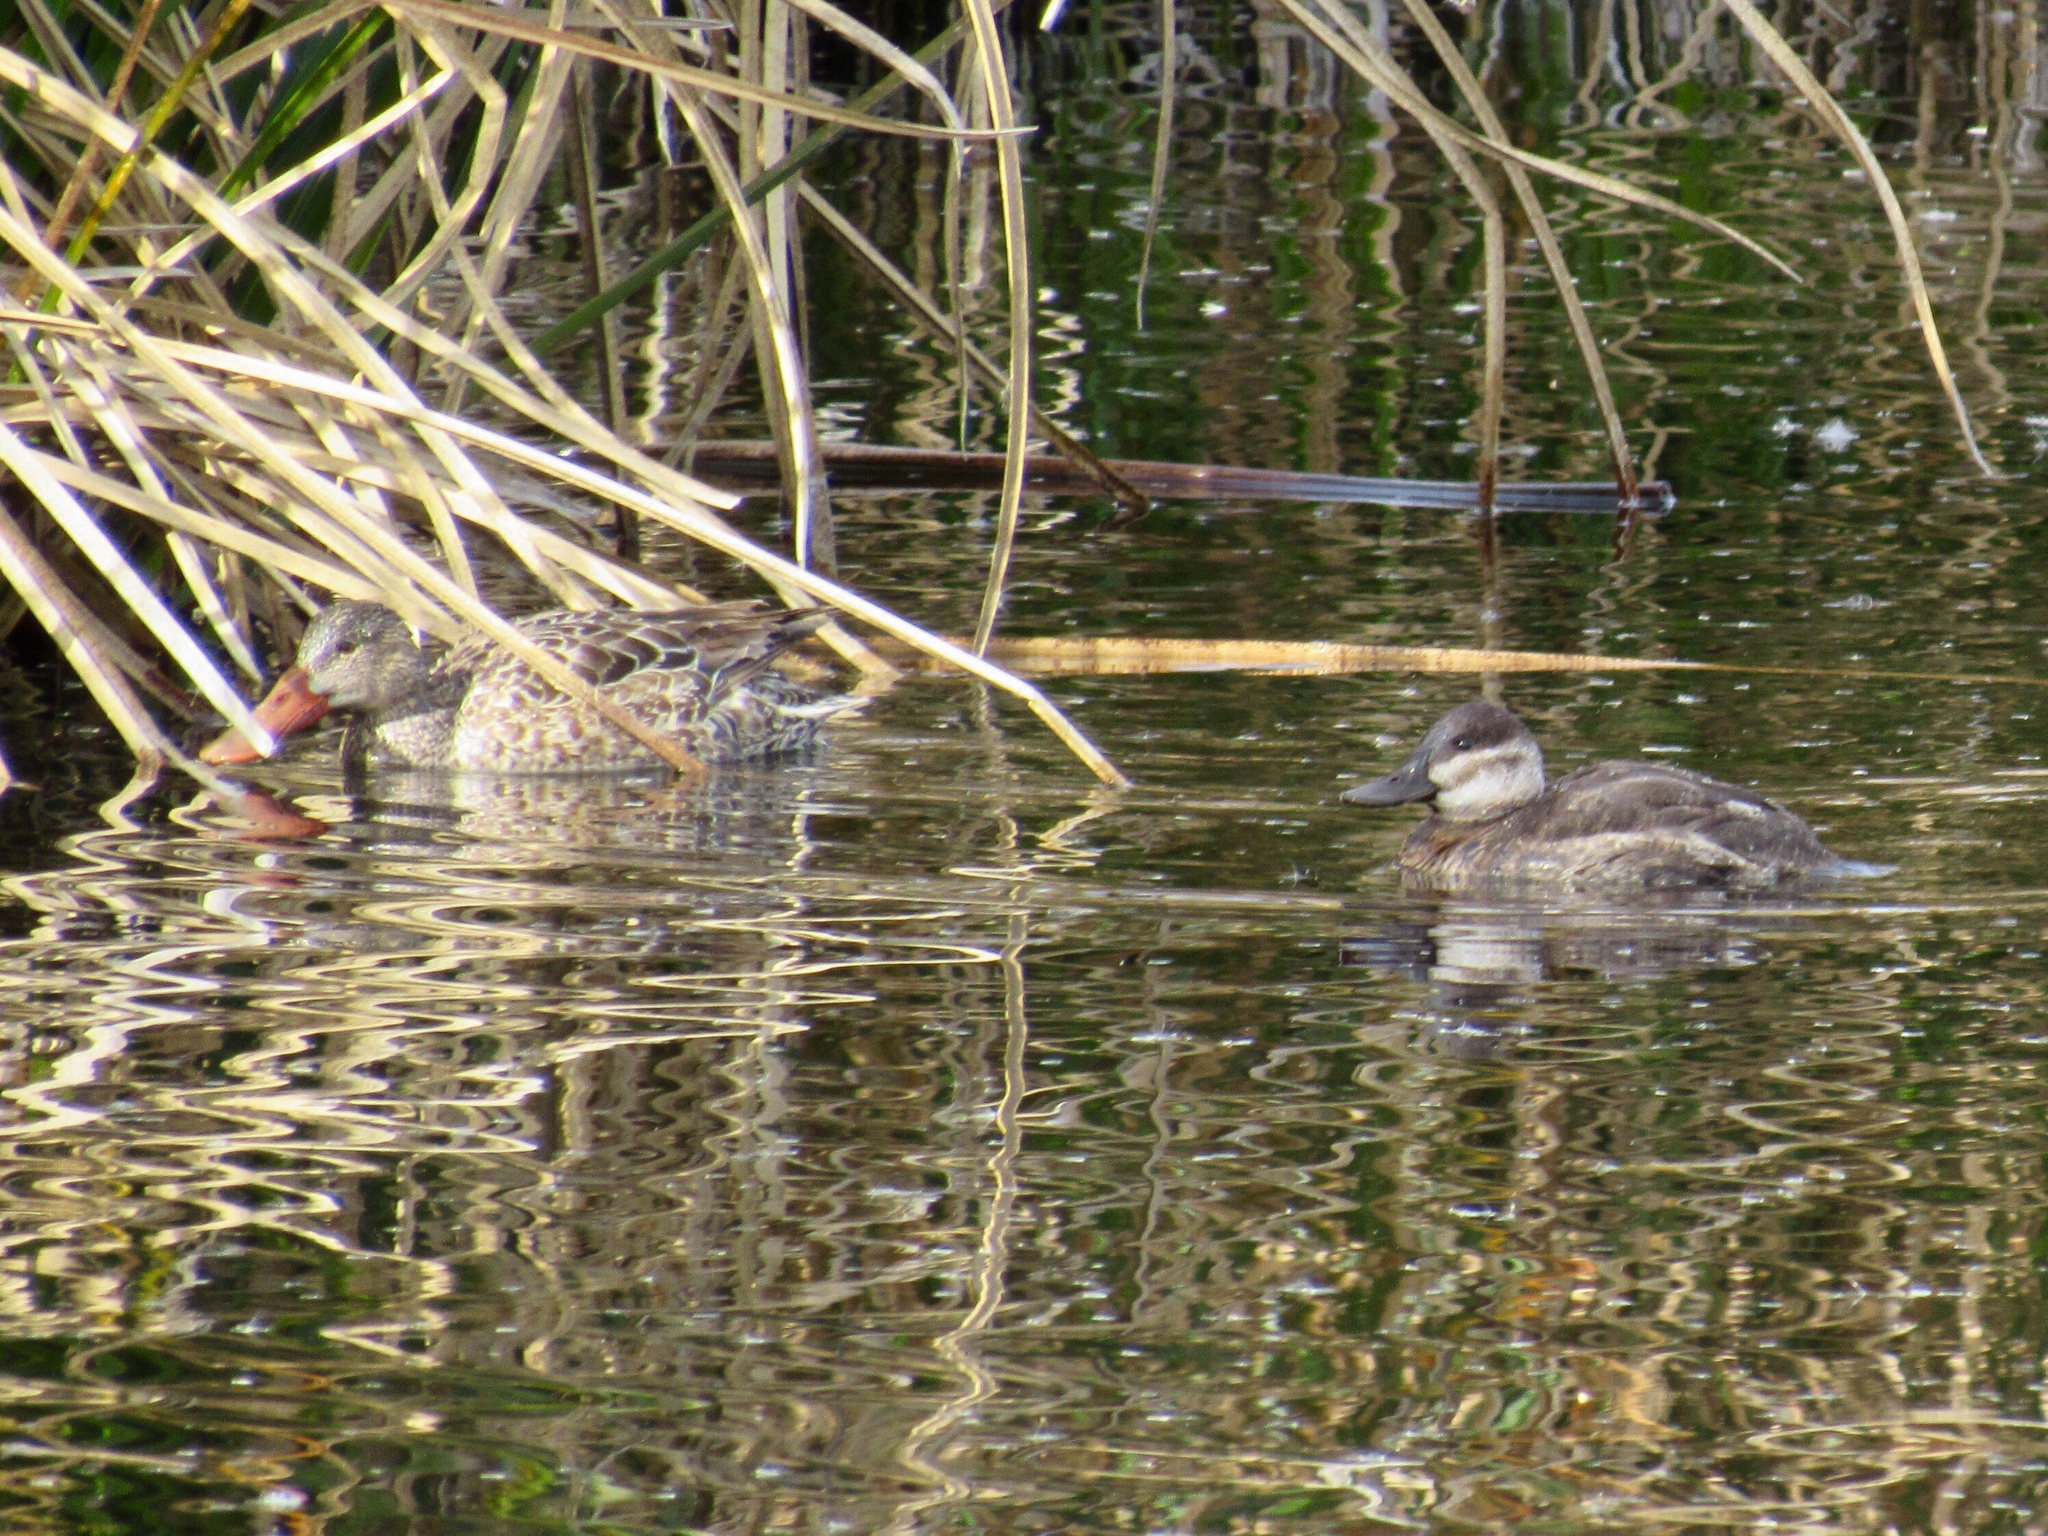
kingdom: Animalia
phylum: Chordata
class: Aves
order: Anseriformes
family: Anatidae
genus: Oxyura
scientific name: Oxyura jamaicensis
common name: Ruddy duck
